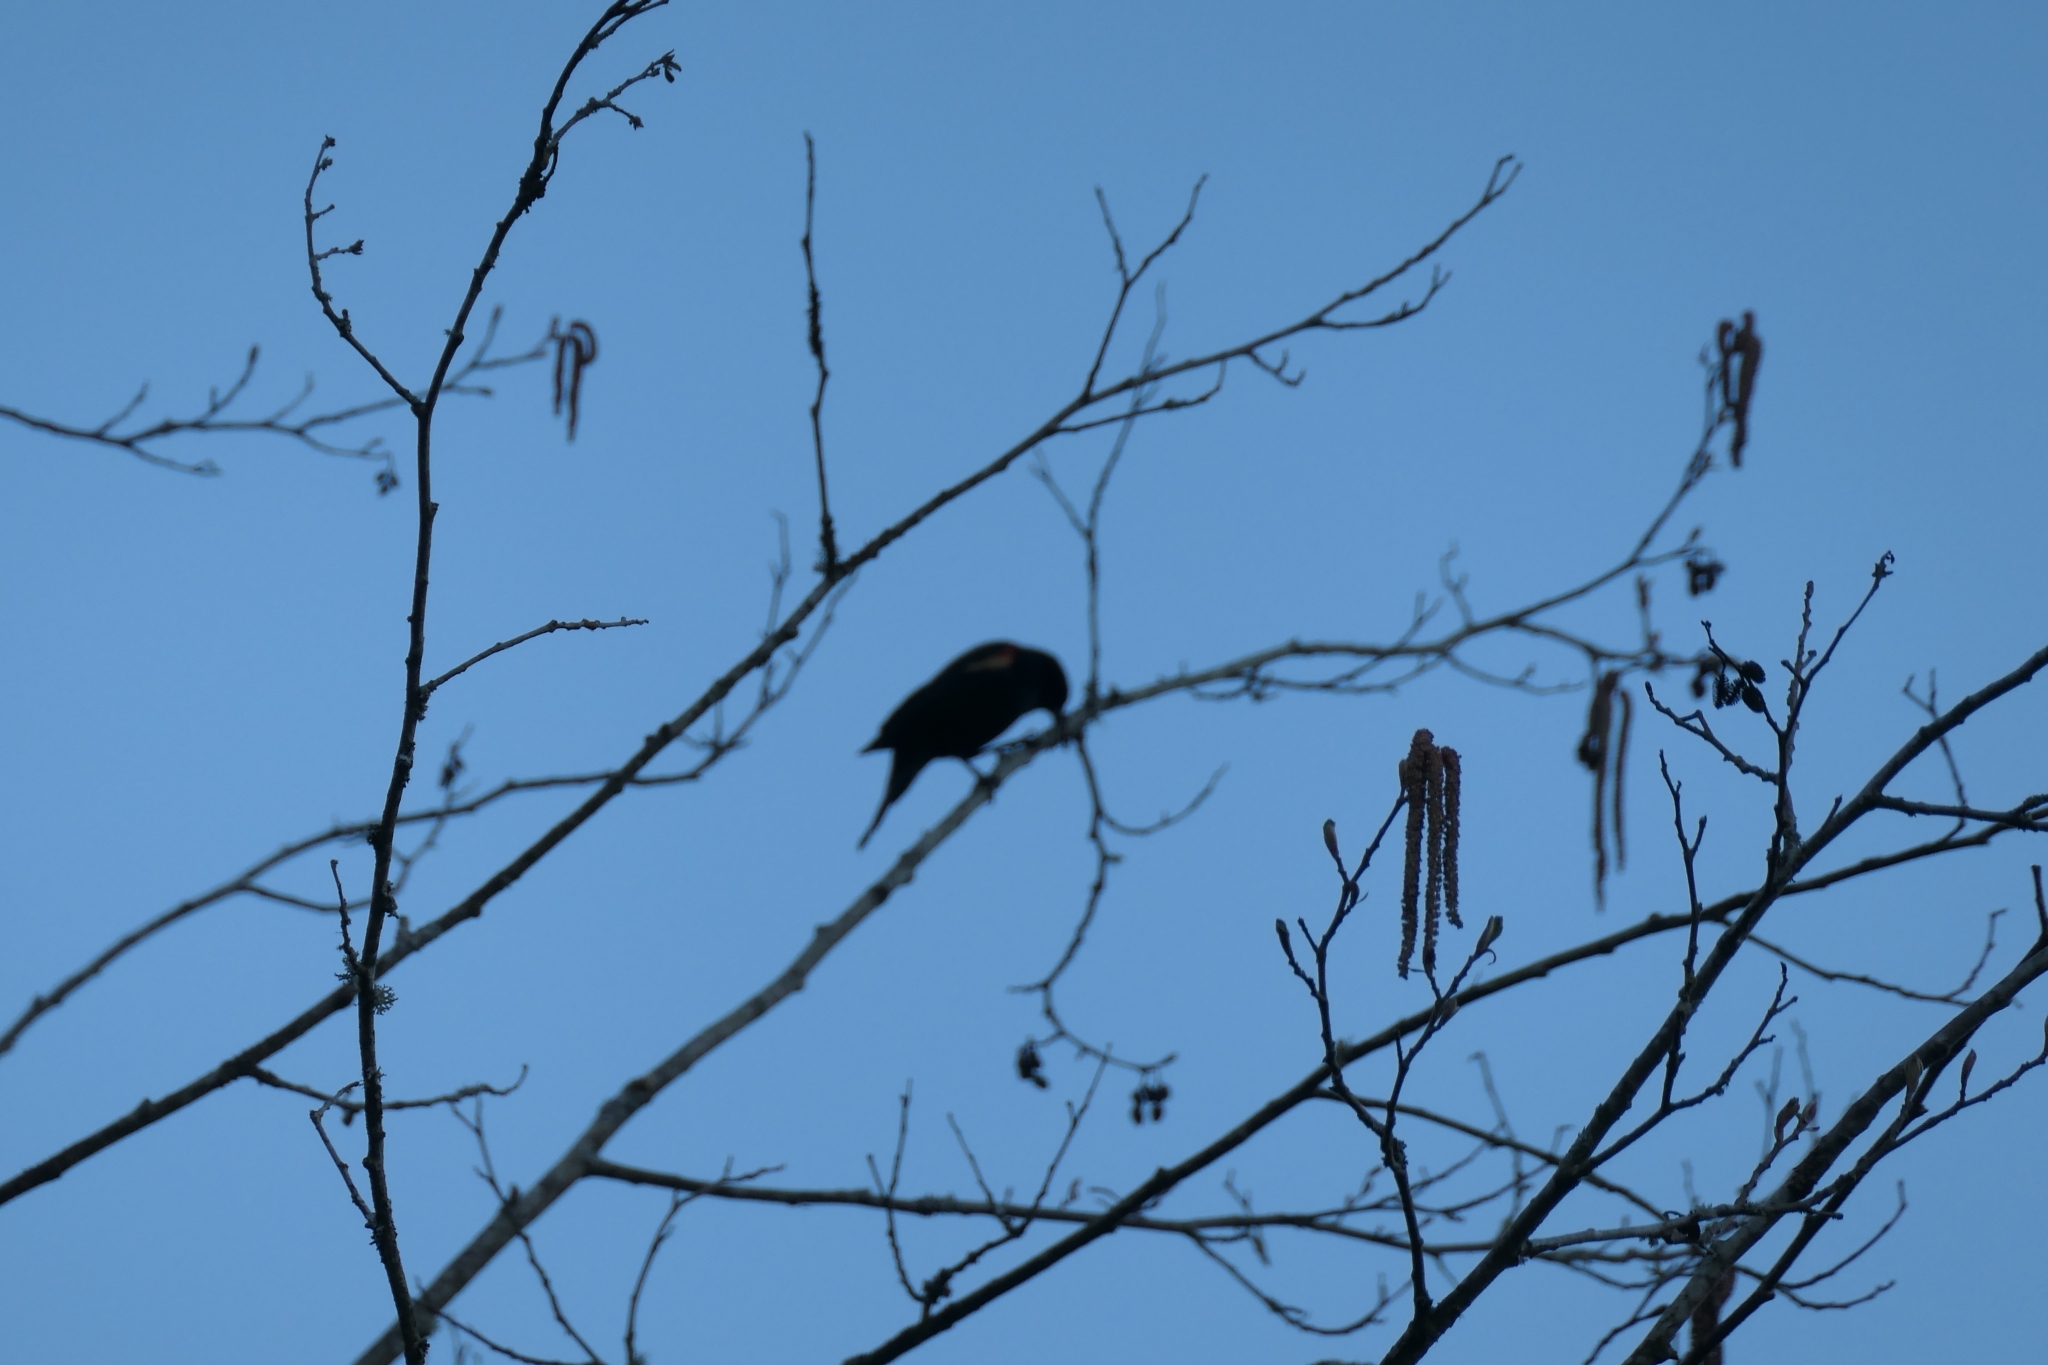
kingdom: Animalia
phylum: Chordata
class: Aves
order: Passeriformes
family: Icteridae
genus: Agelaius
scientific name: Agelaius phoeniceus
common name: Red-winged blackbird
